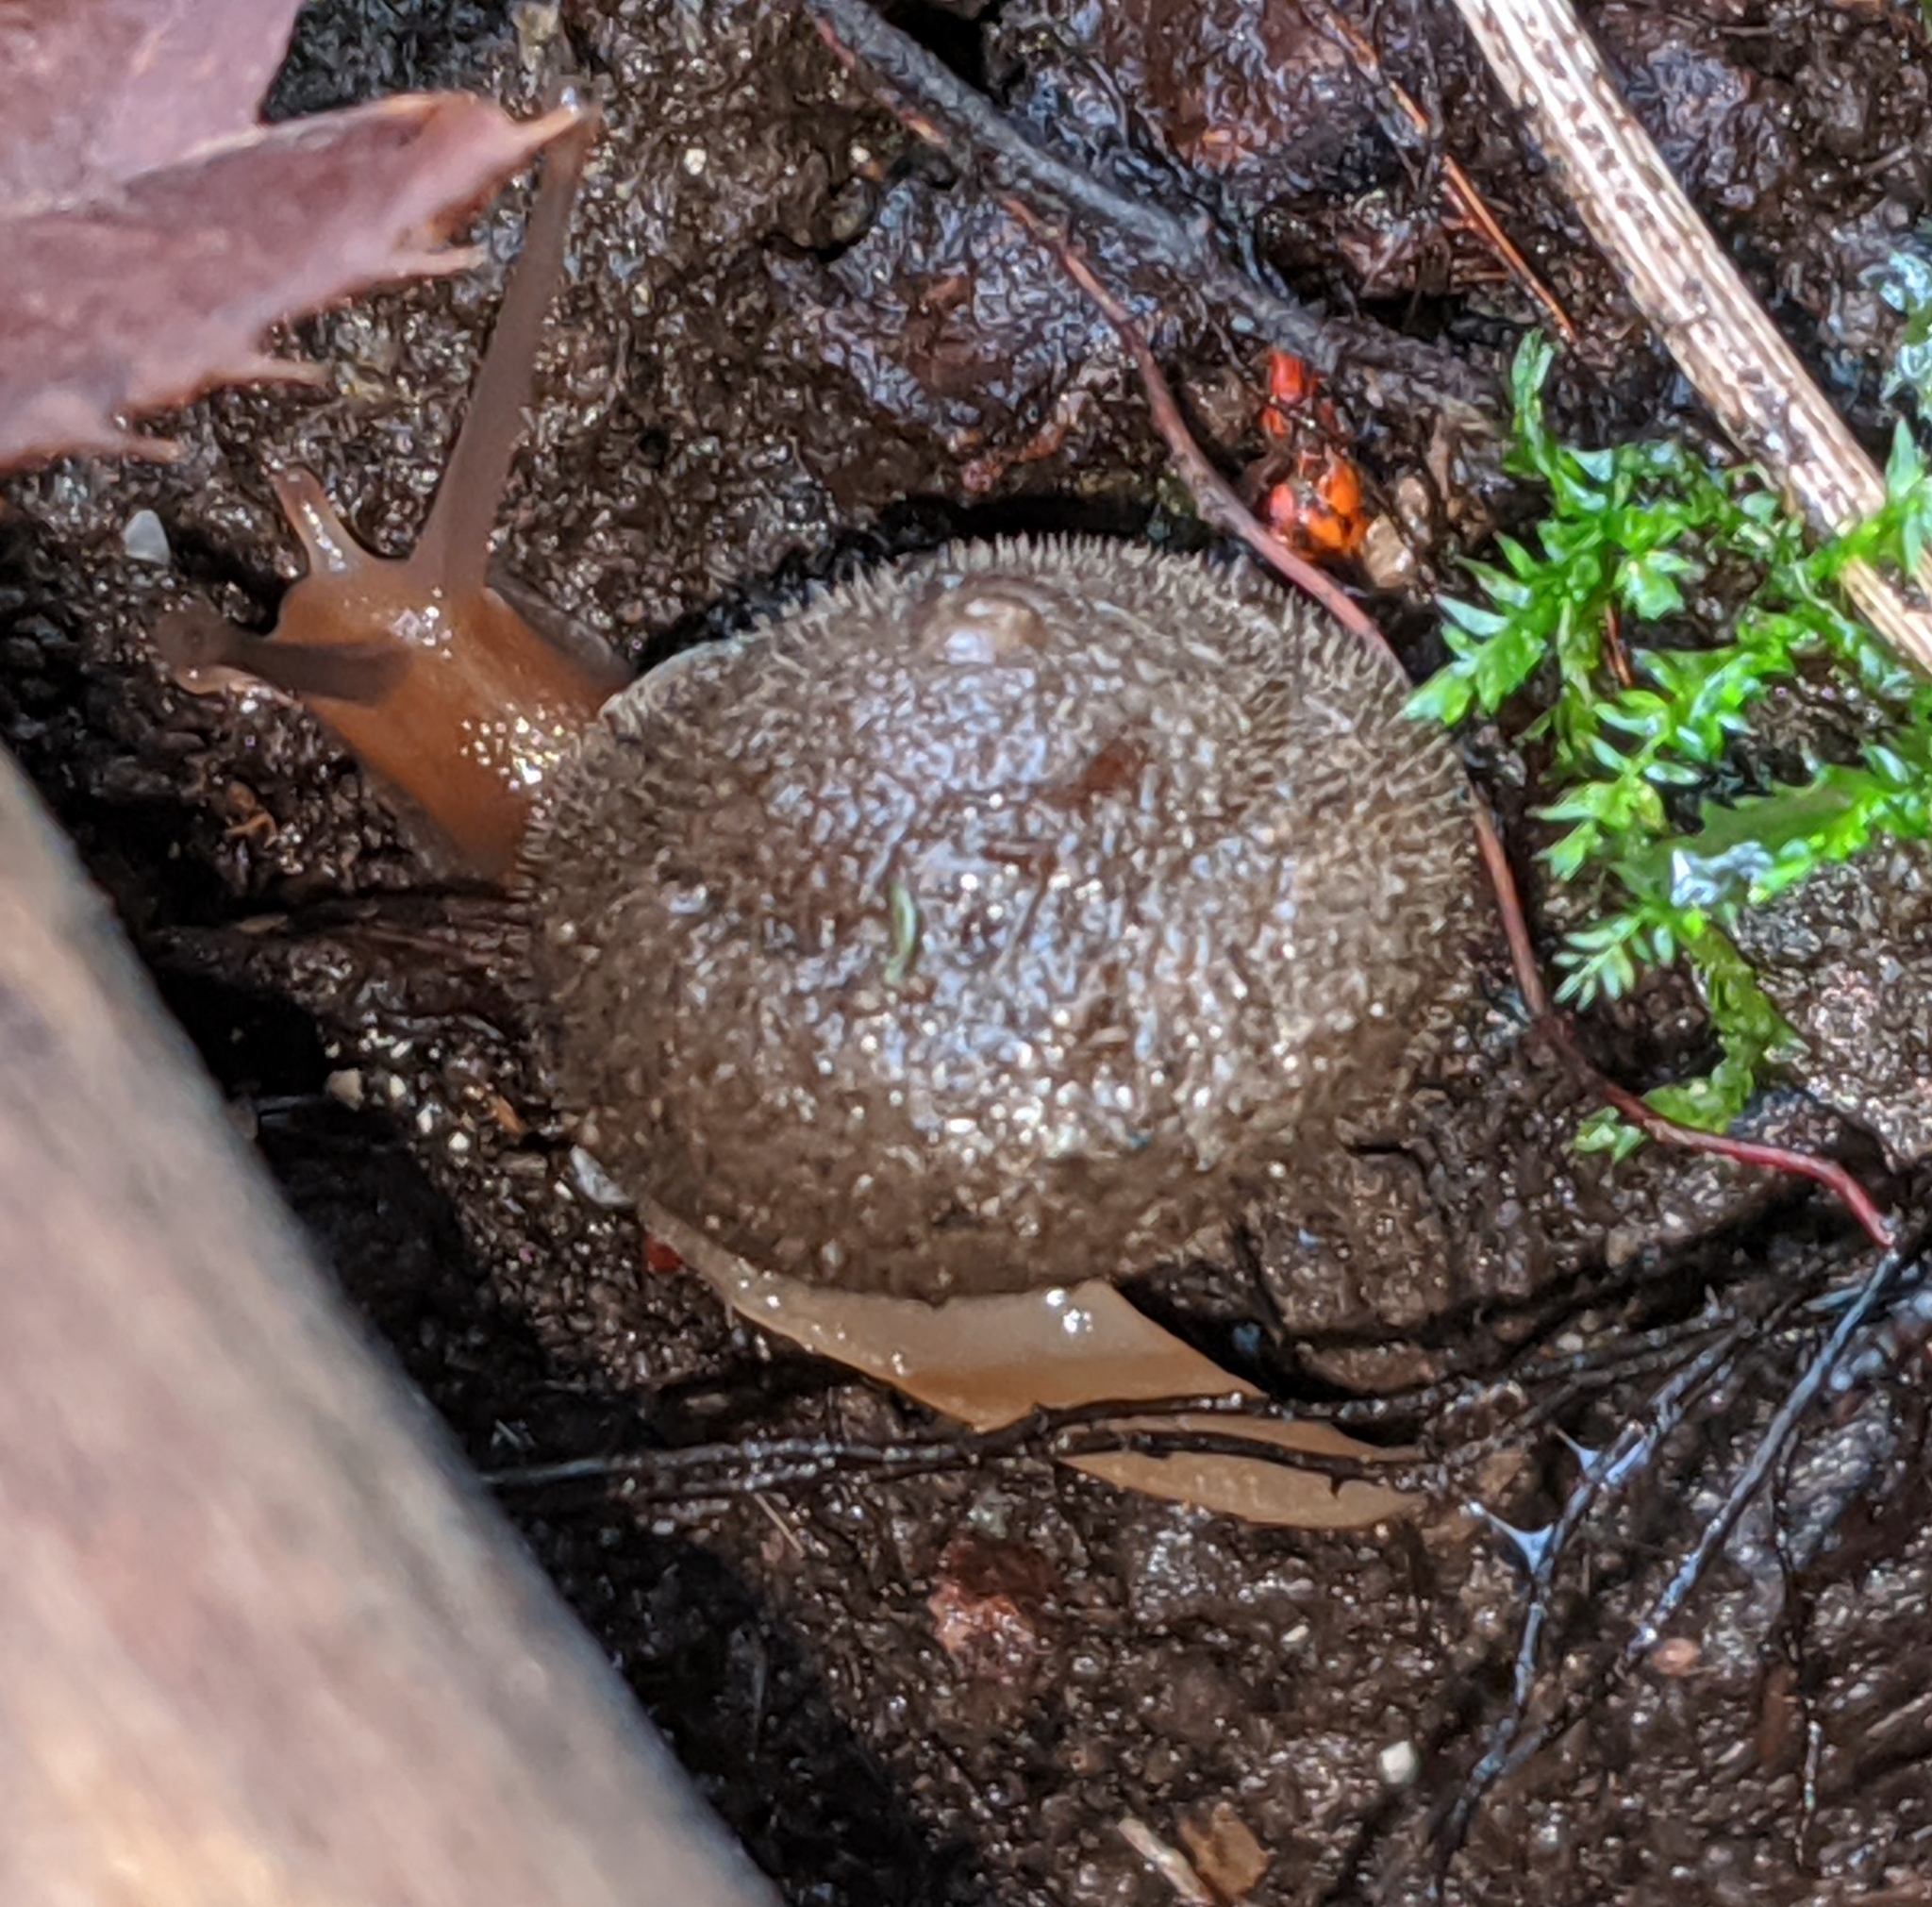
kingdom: Animalia
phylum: Mollusca
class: Gastropoda
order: Stylommatophora
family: Polygyridae
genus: Vespericola
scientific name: Vespericola columbianus
